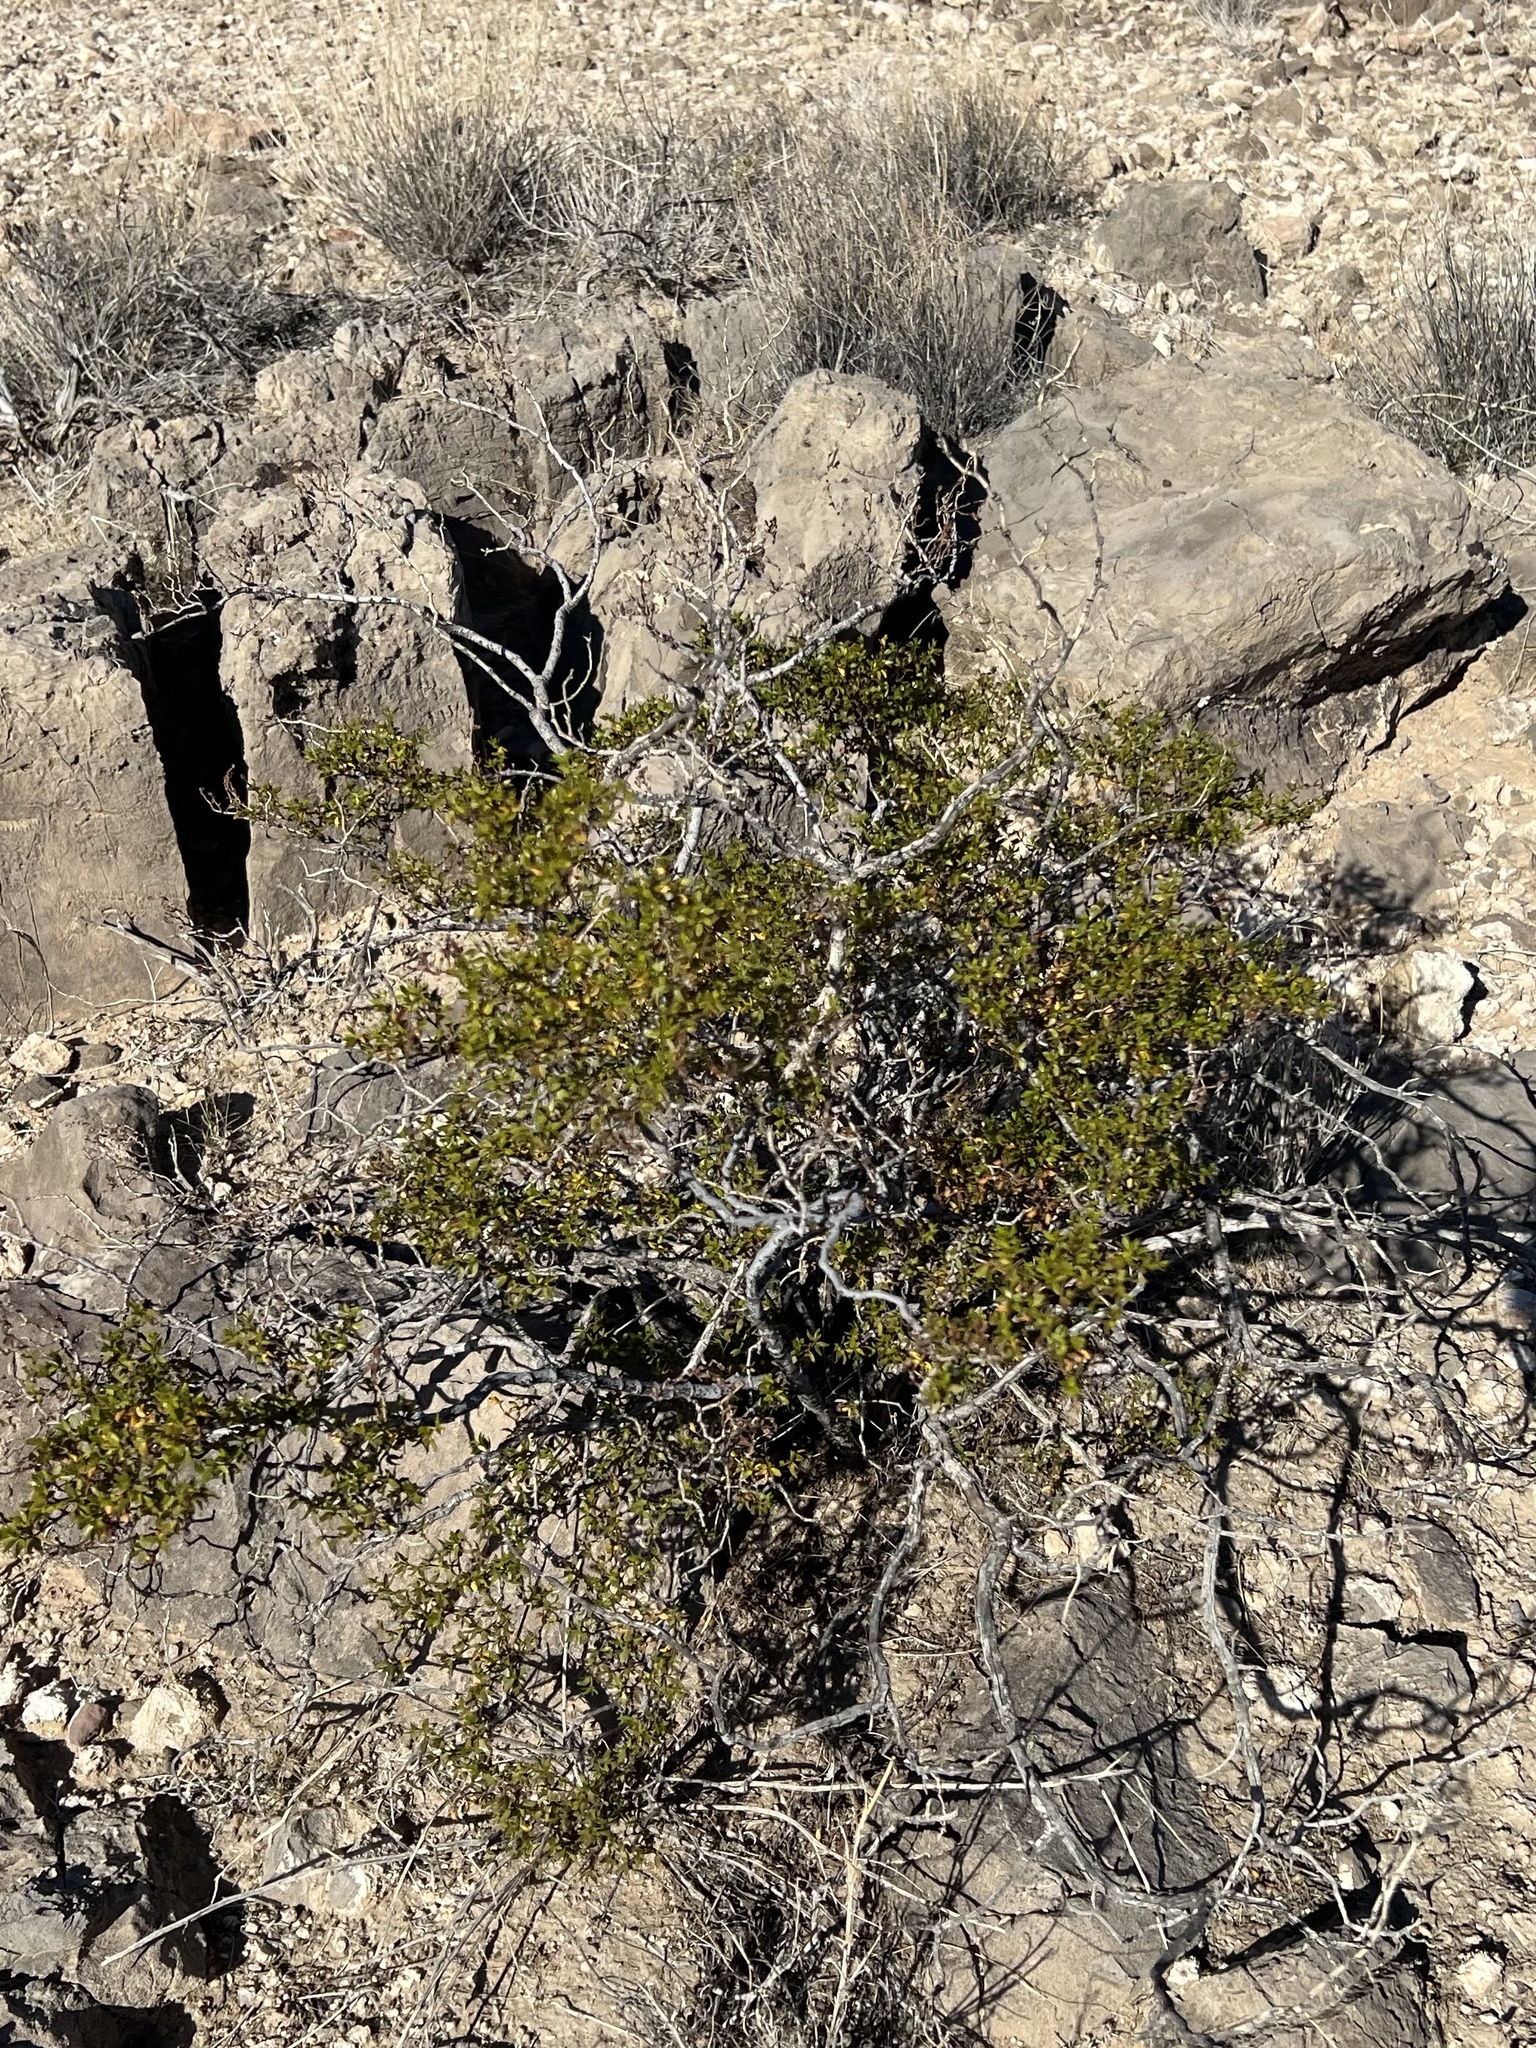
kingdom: Plantae
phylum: Tracheophyta
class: Magnoliopsida
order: Zygophyllales
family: Zygophyllaceae
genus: Larrea
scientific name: Larrea tridentata
